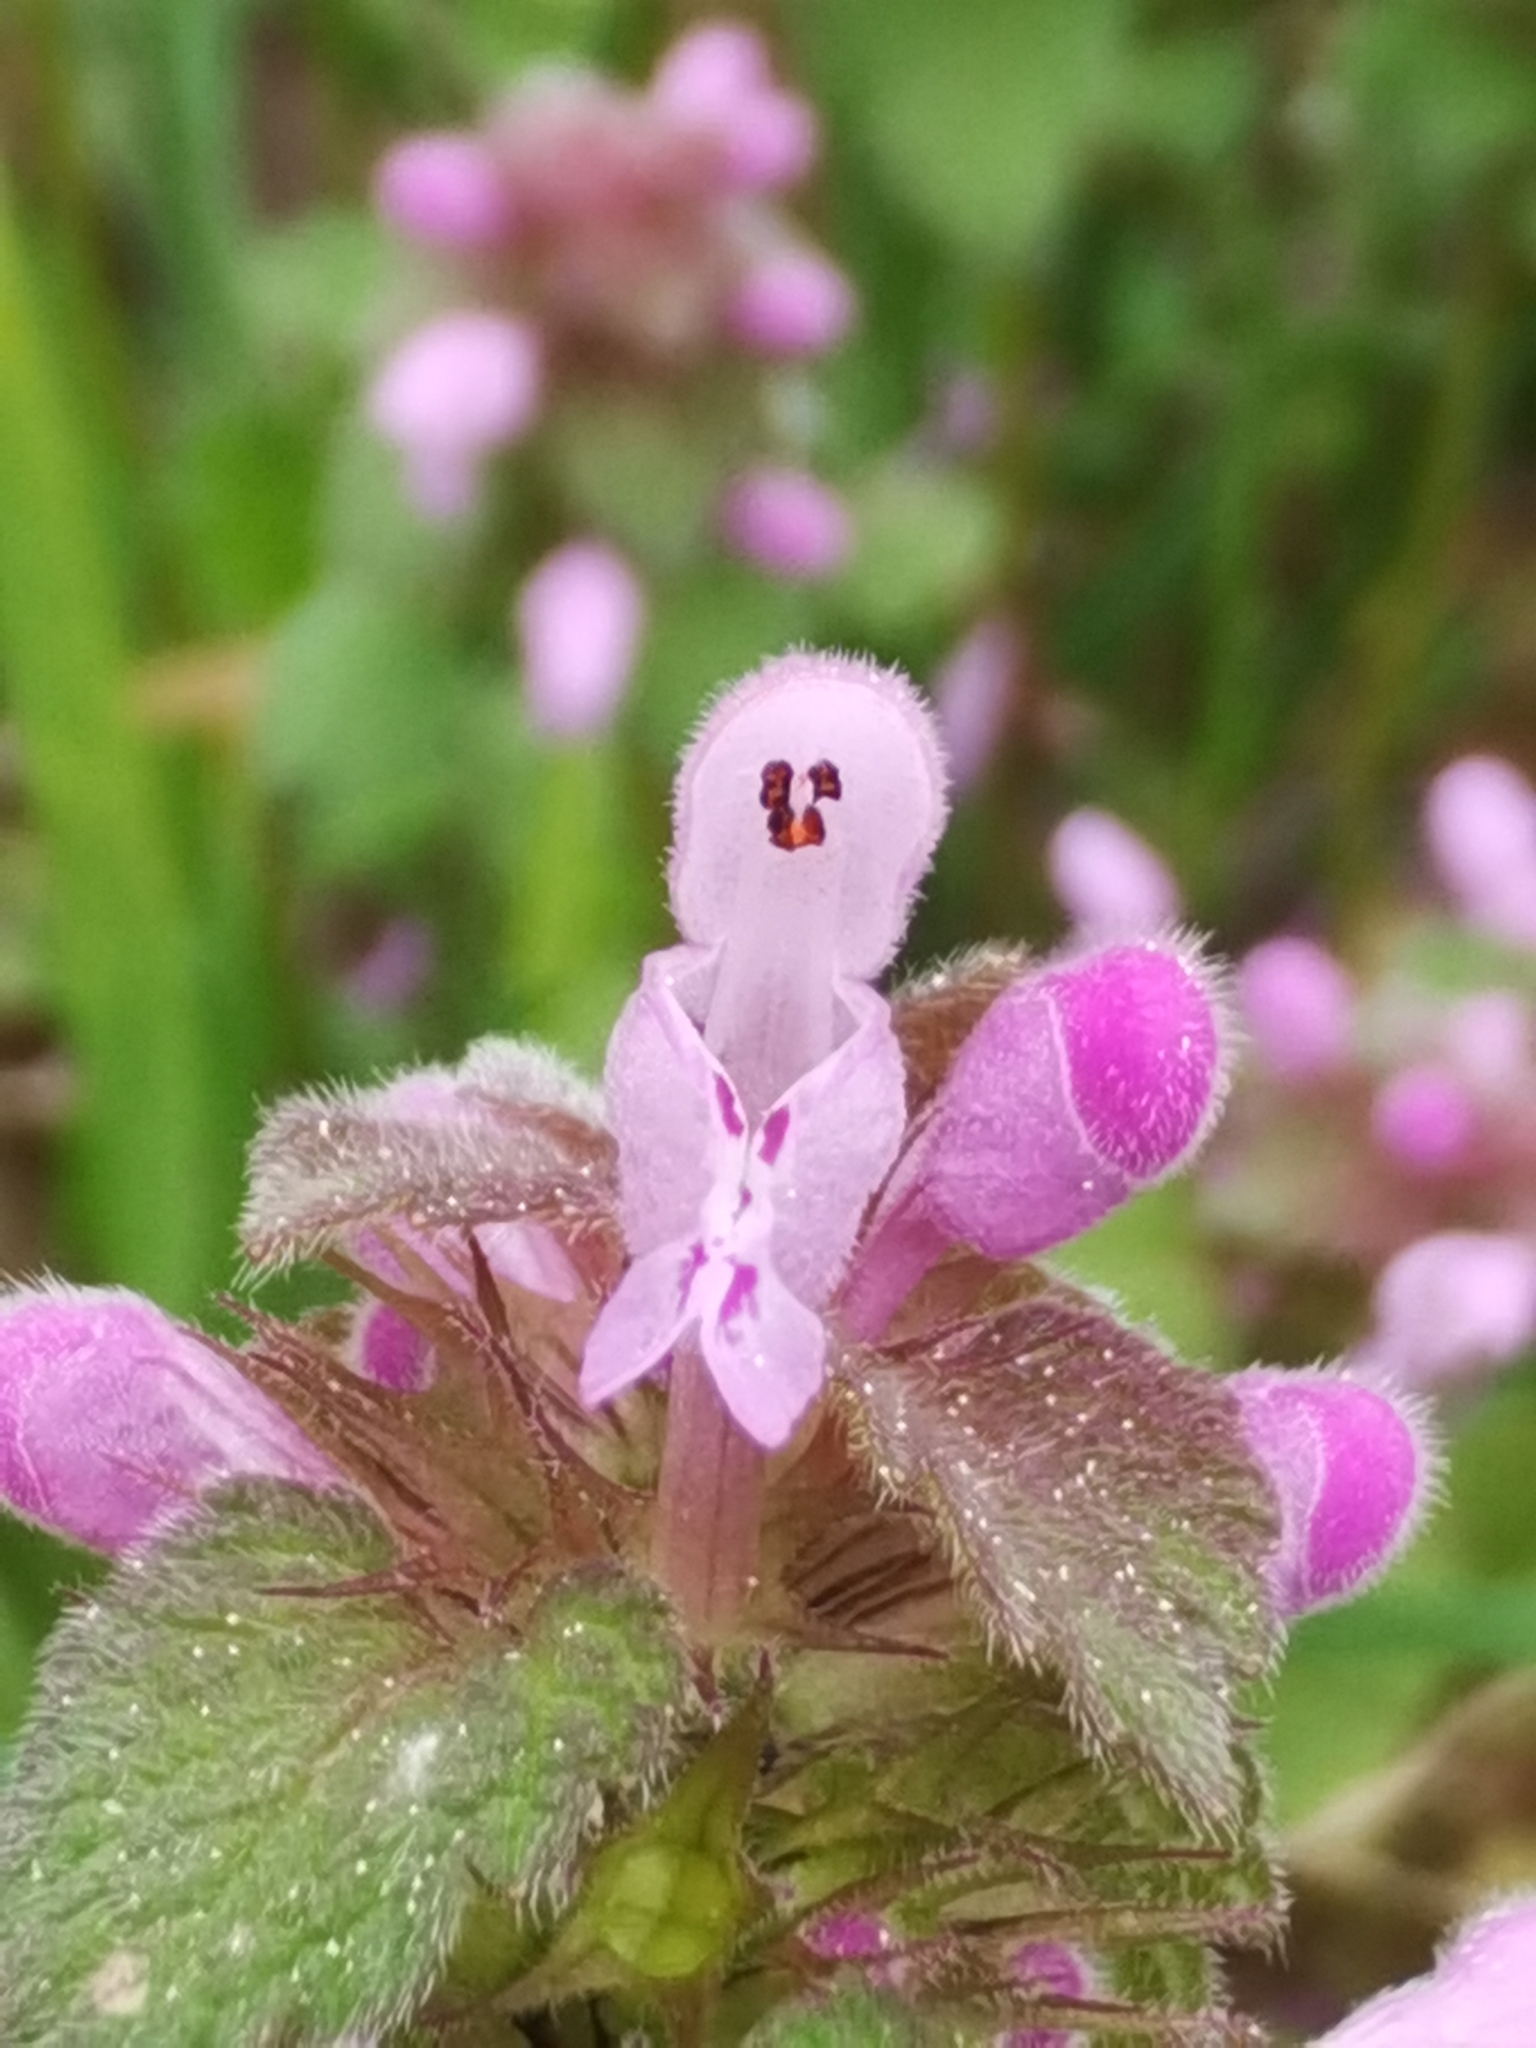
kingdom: Plantae
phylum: Tracheophyta
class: Magnoliopsida
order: Lamiales
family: Lamiaceae
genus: Lamium
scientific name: Lamium purpureum
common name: Red dead-nettle
